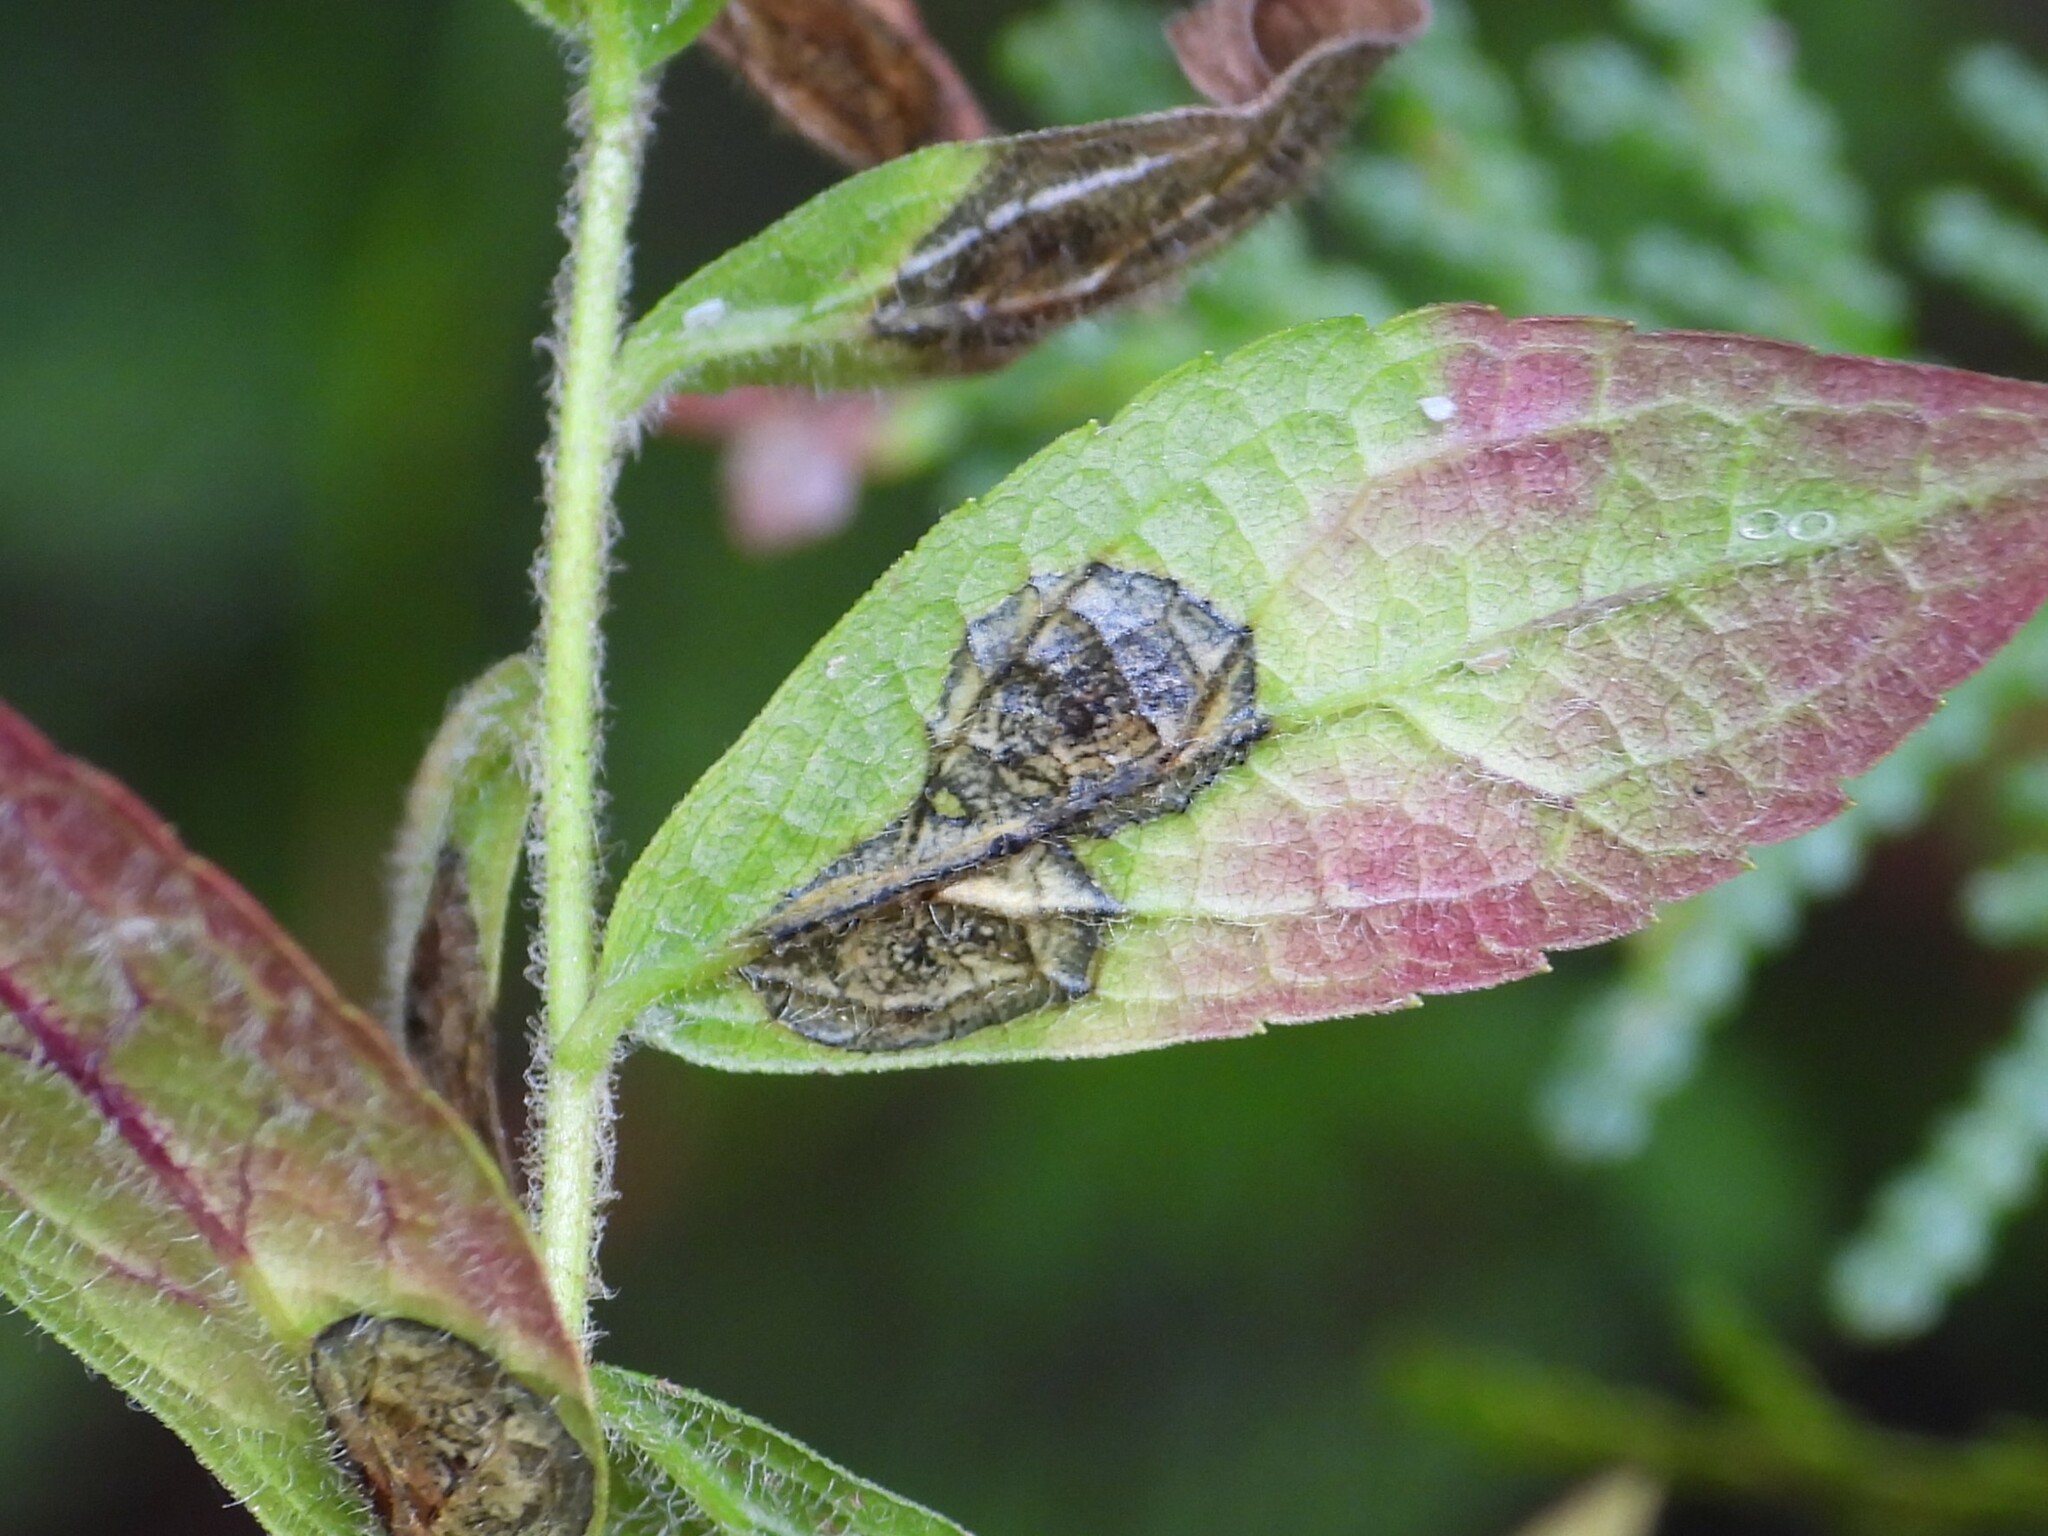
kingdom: Animalia
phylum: Arthropoda
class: Insecta
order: Diptera
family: Cecidomyiidae
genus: Asteromyia
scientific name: Asteromyia carbonifera
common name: Carbonifera goldenrod gall midge
